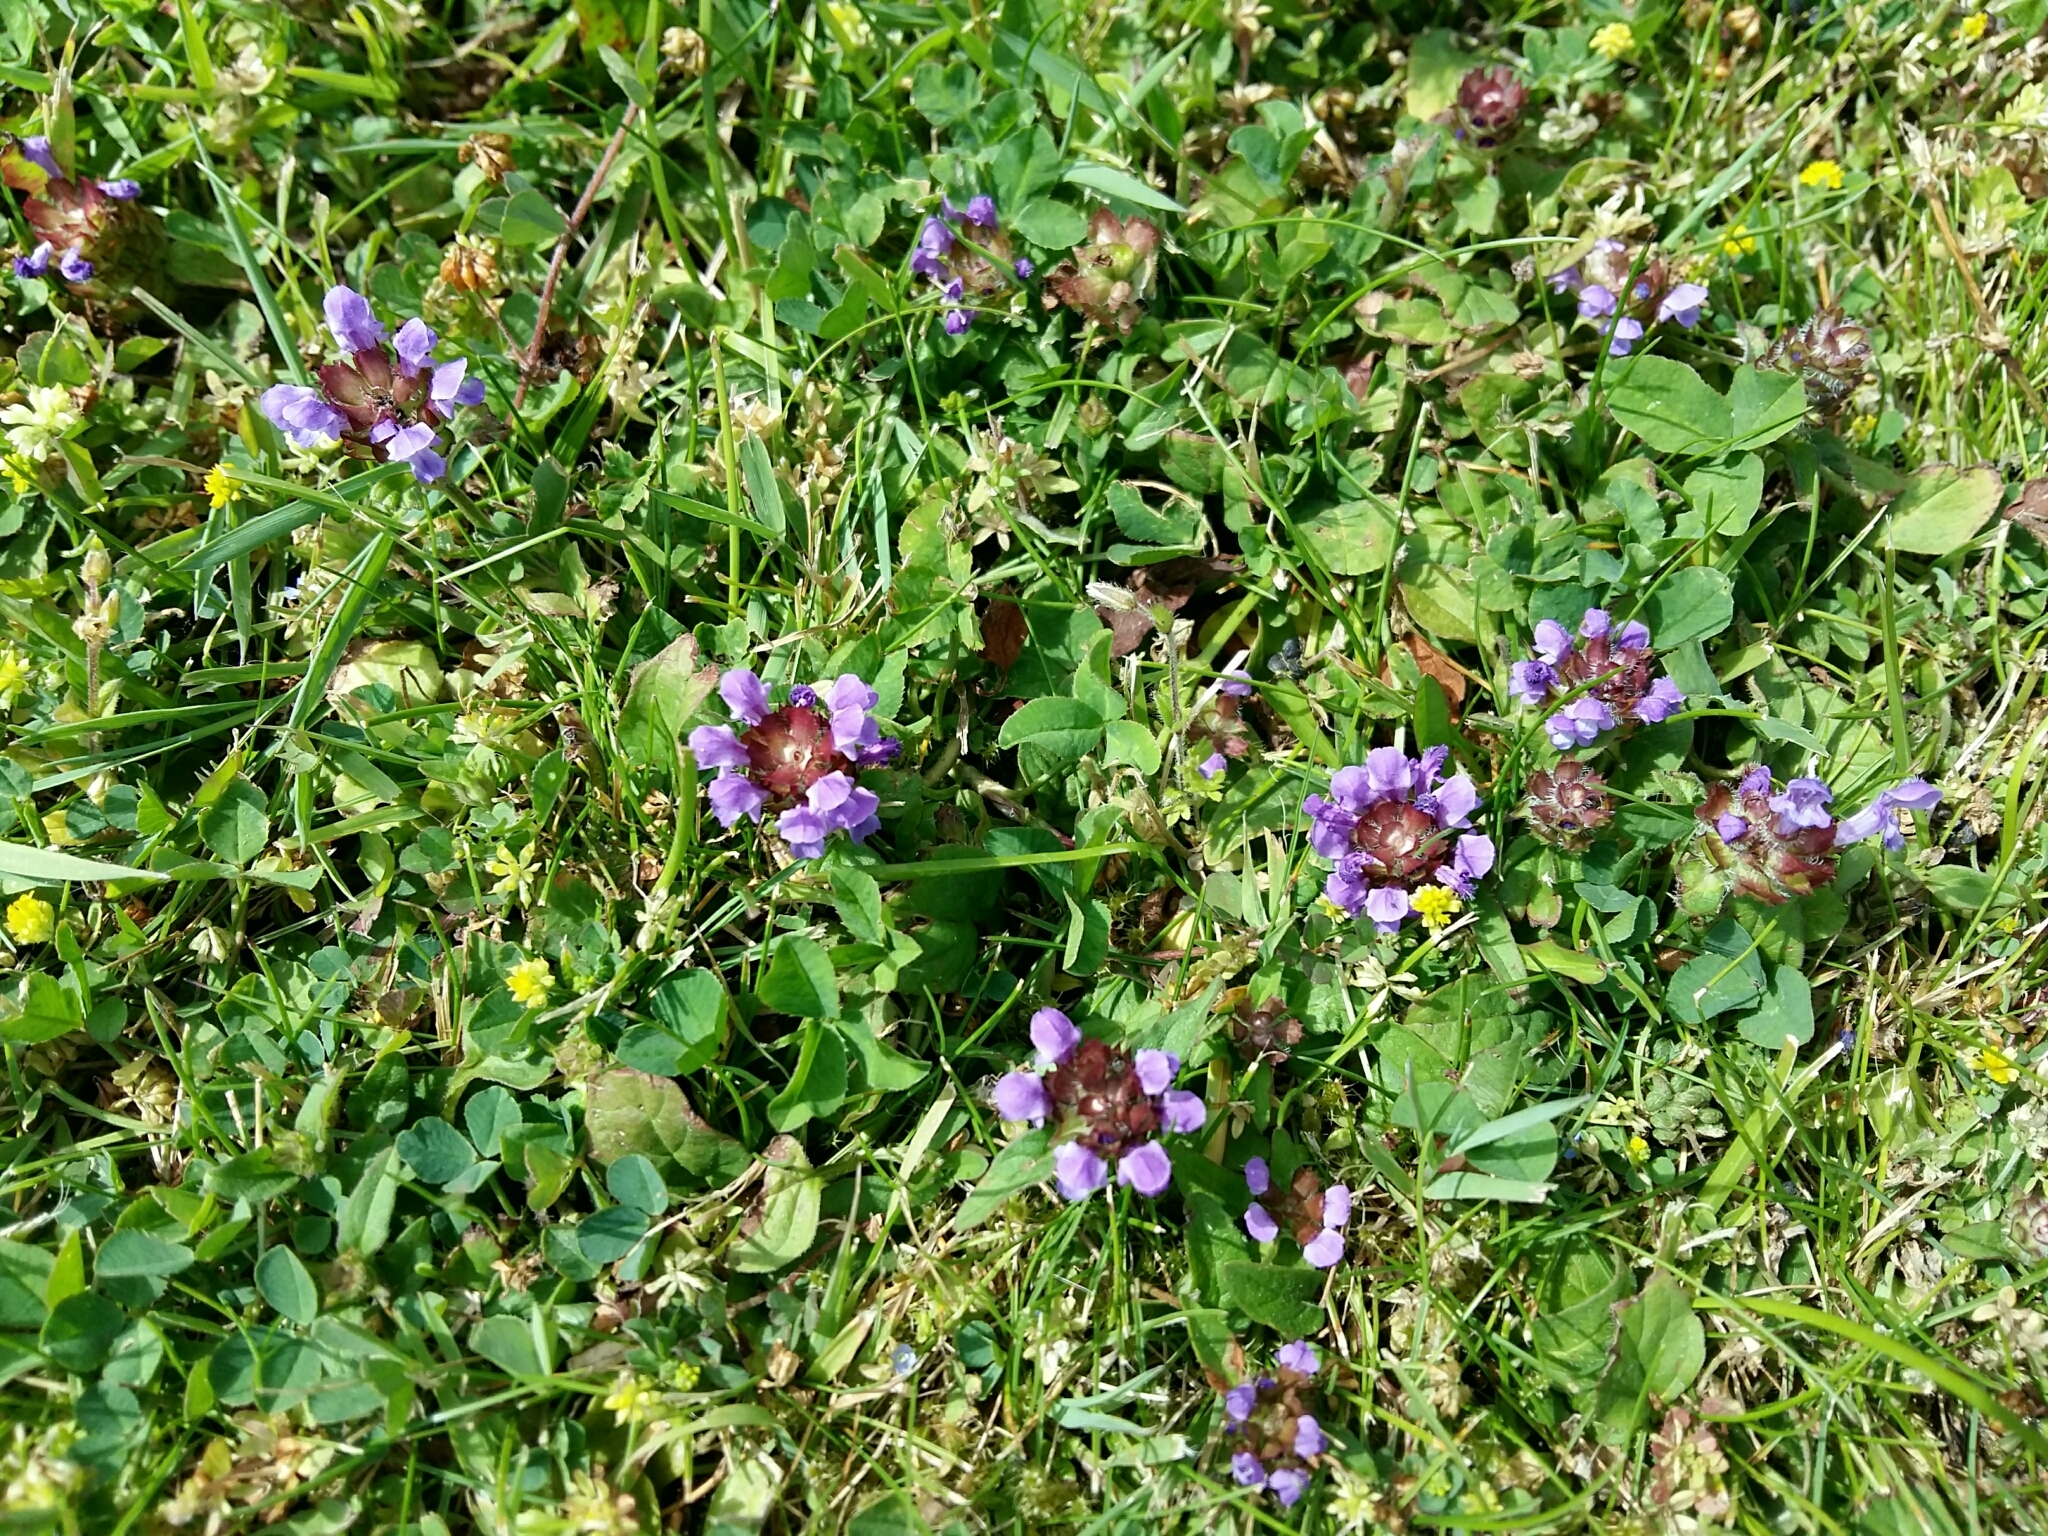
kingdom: Plantae
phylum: Tracheophyta
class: Magnoliopsida
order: Lamiales
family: Lamiaceae
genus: Prunella
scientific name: Prunella vulgaris
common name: Heal-all
